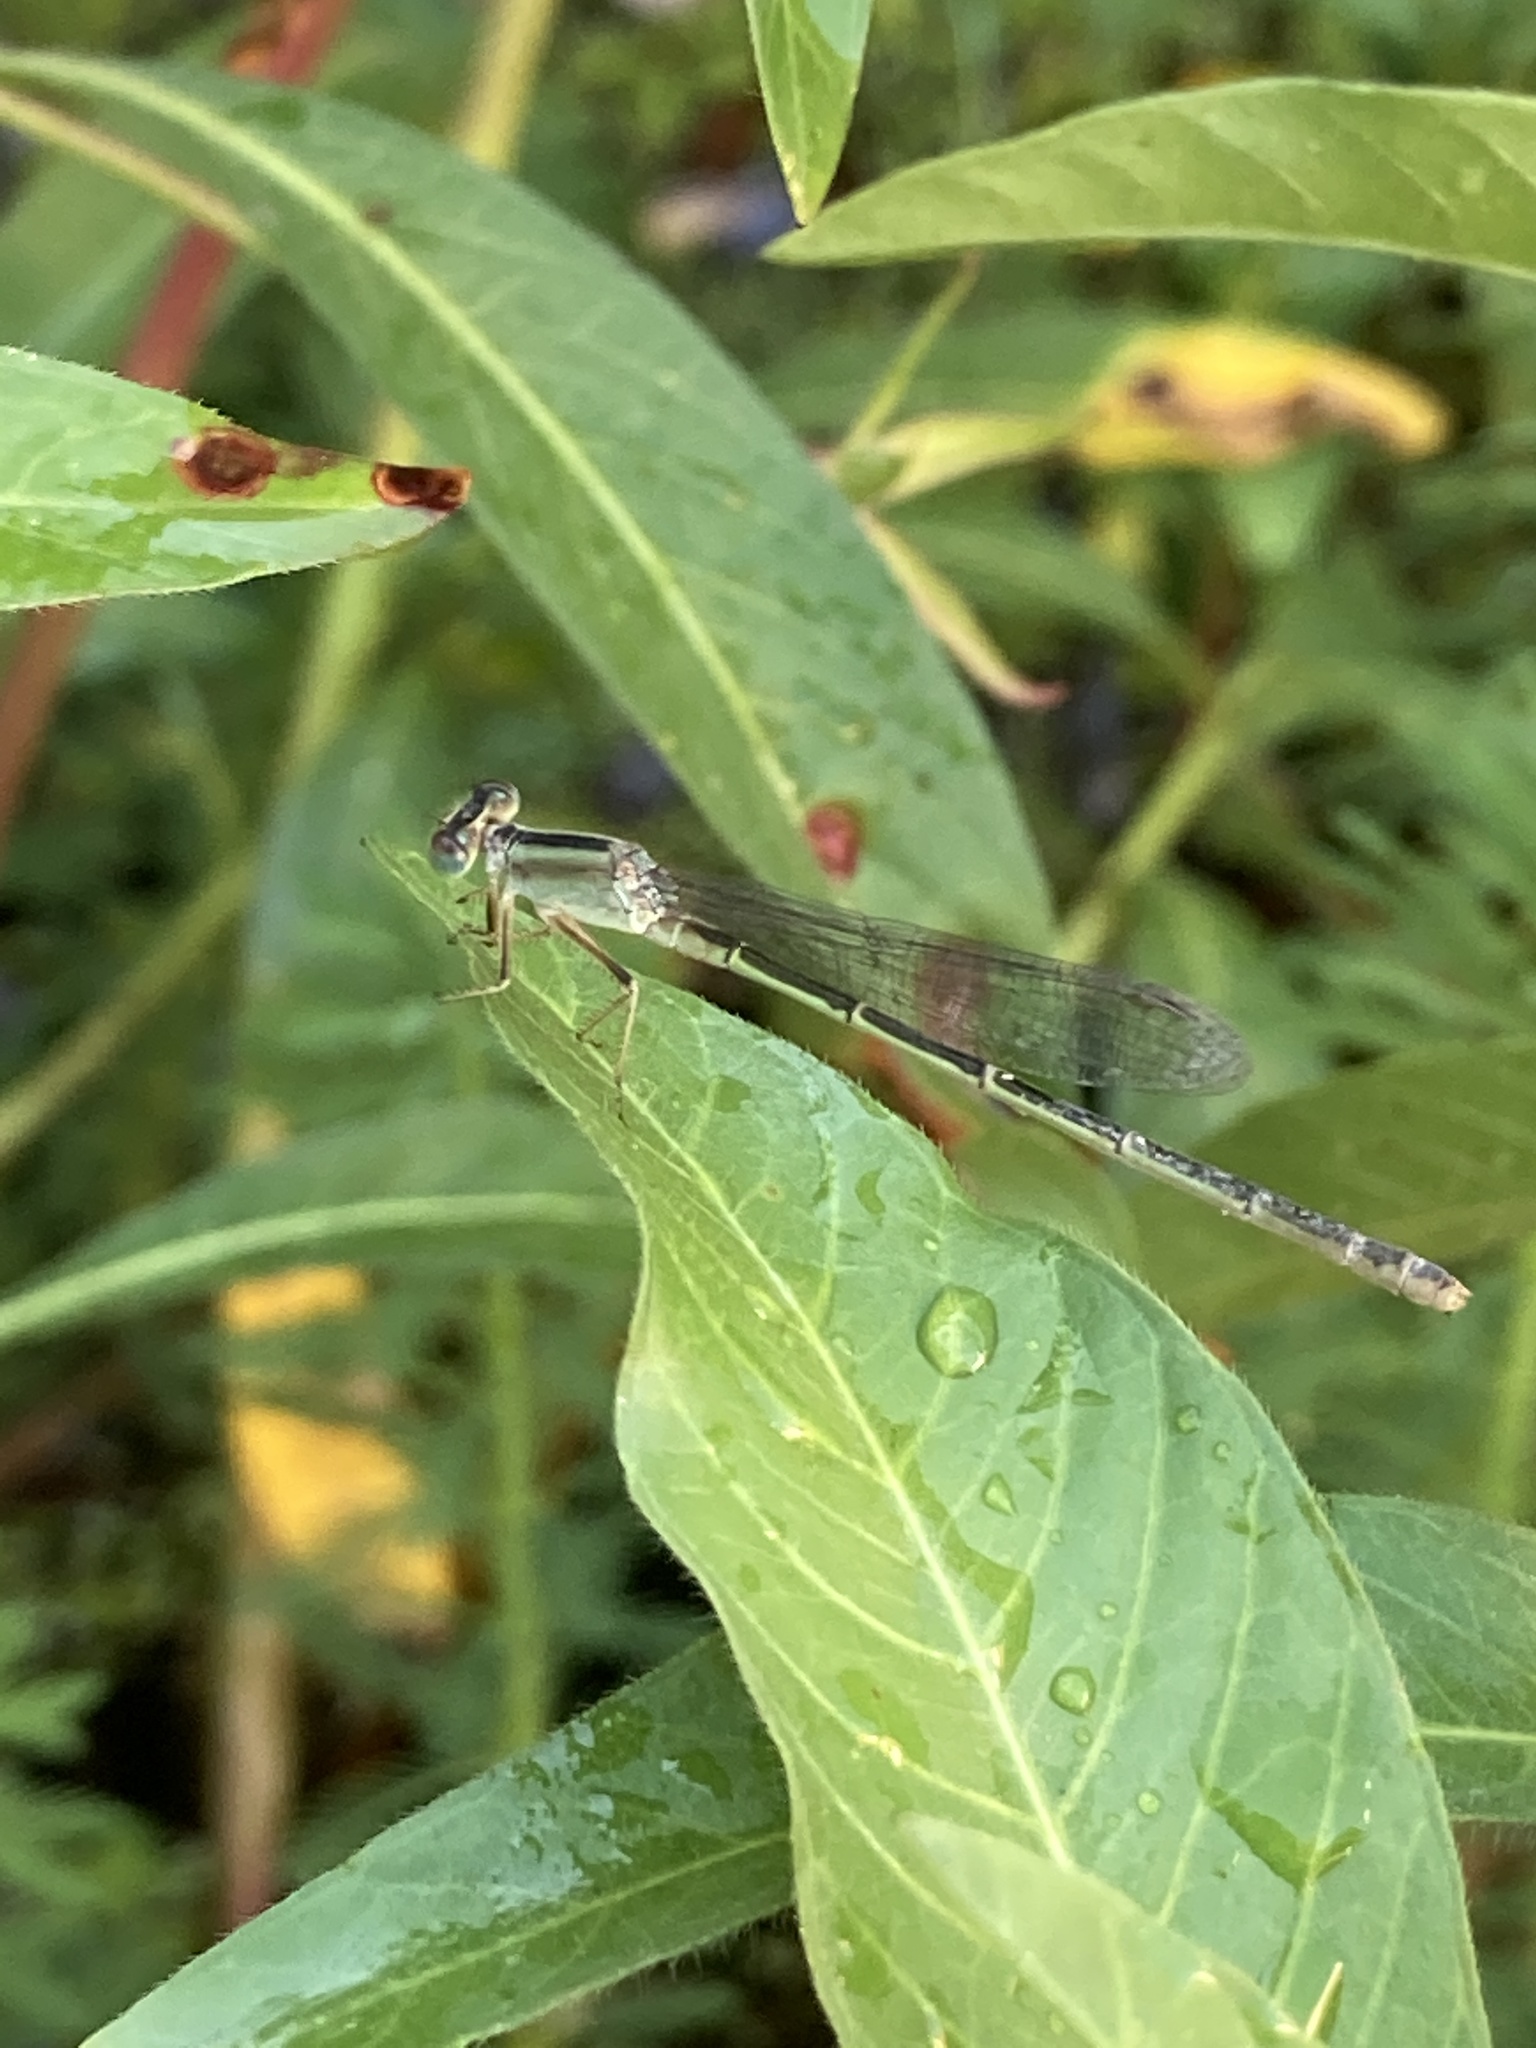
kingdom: Animalia
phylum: Arthropoda
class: Insecta
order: Odonata
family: Coenagrionidae
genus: Ischnura
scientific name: Ischnura fluviatilis
